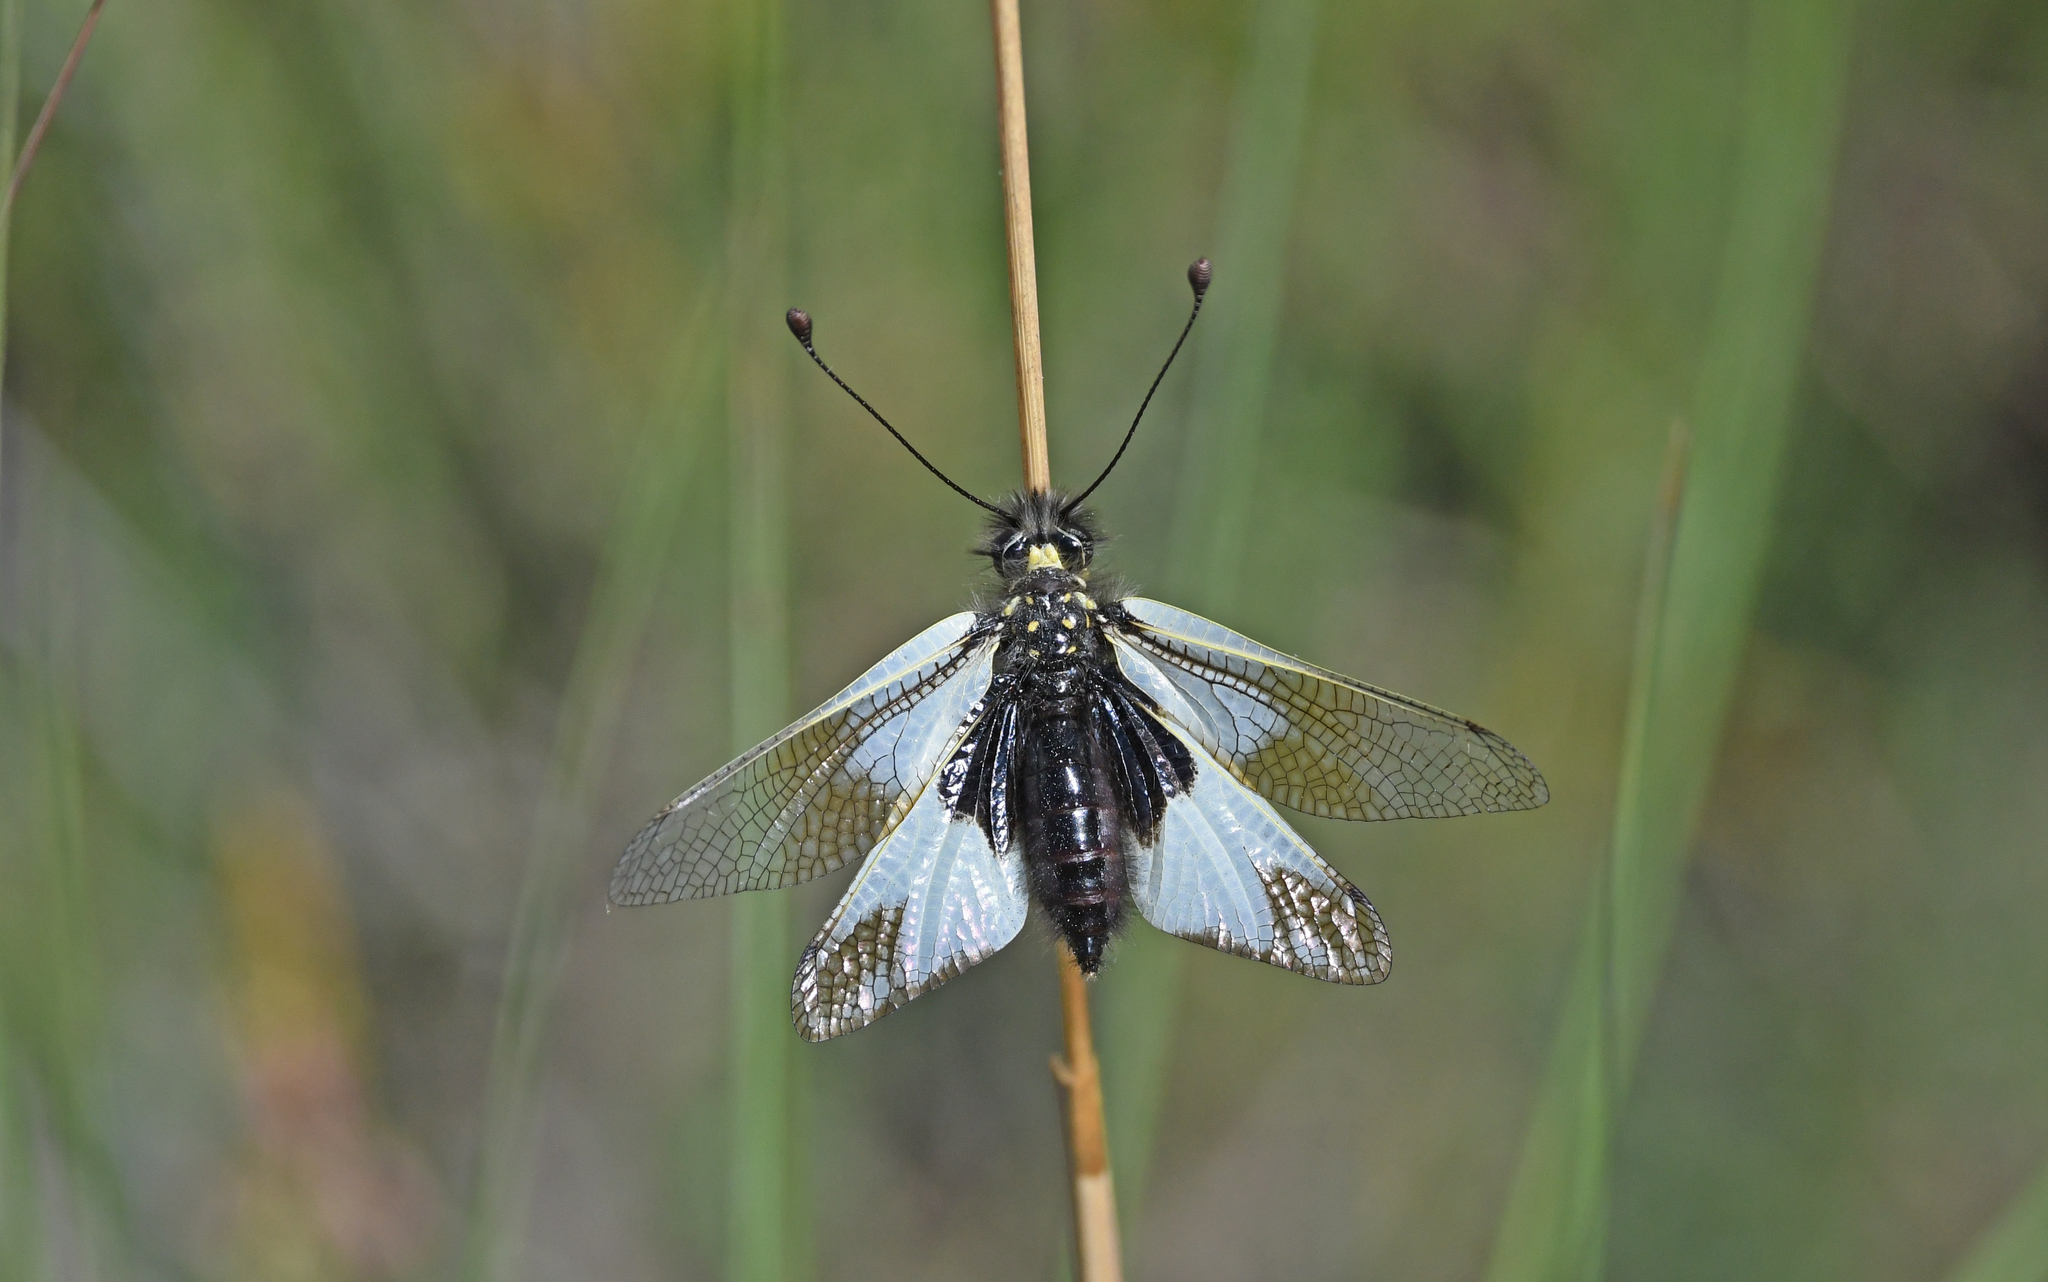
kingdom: Animalia
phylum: Arthropoda
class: Insecta
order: Neuroptera
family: Ascalaphidae
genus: Libelloides
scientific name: Libelloides lacteus
